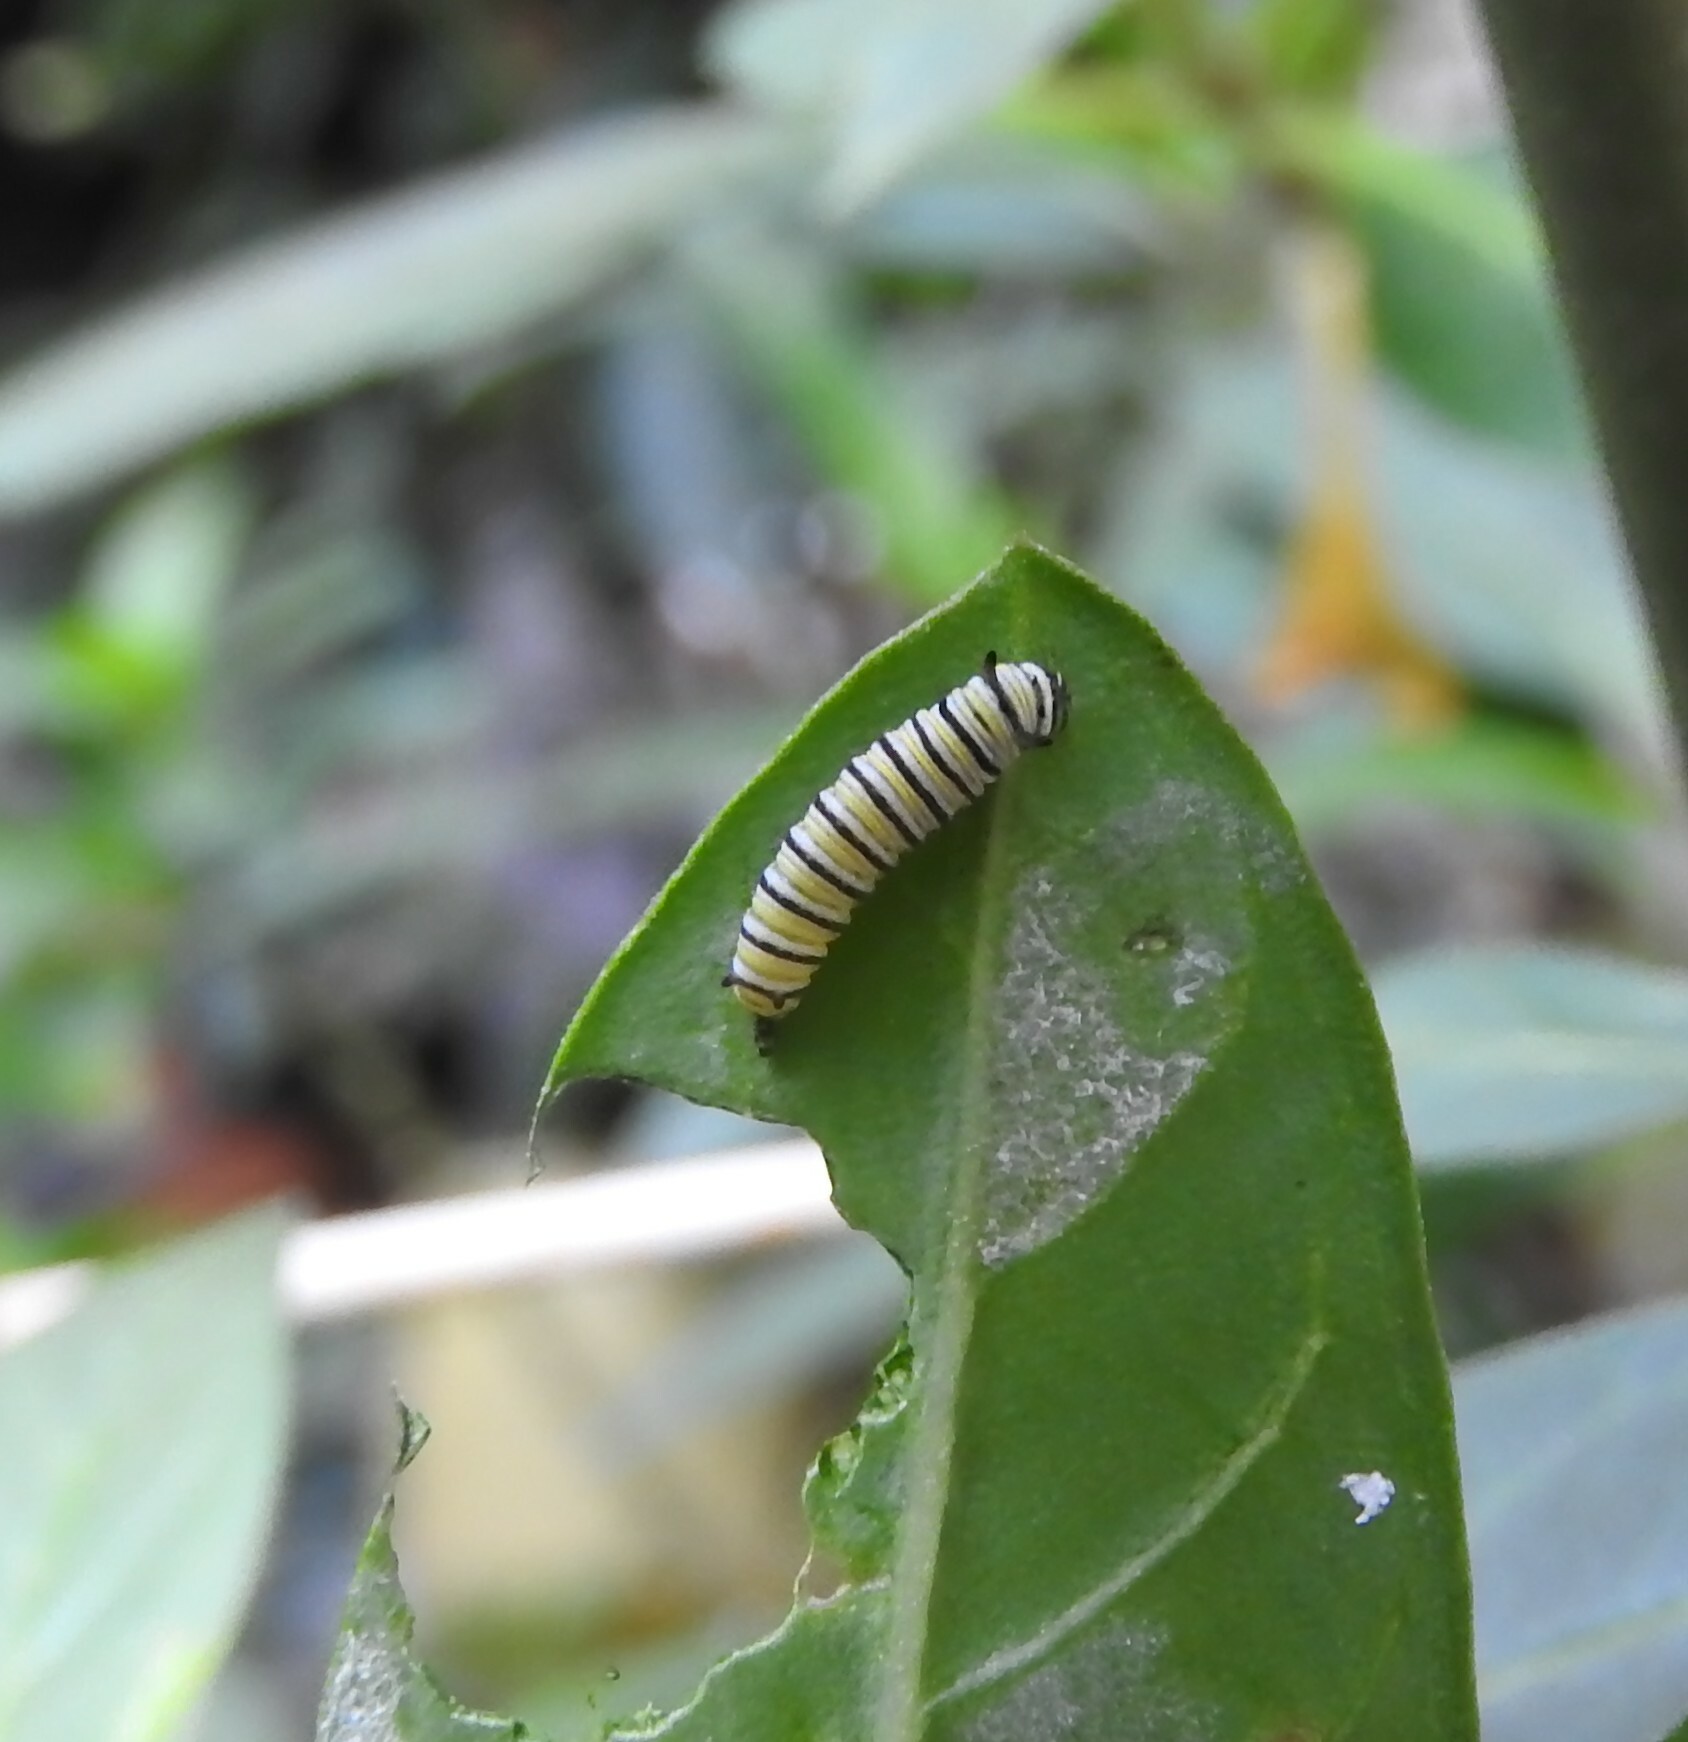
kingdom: Animalia
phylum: Arthropoda
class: Insecta
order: Lepidoptera
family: Nymphalidae
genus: Danaus
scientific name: Danaus plexippus
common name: Monarch
